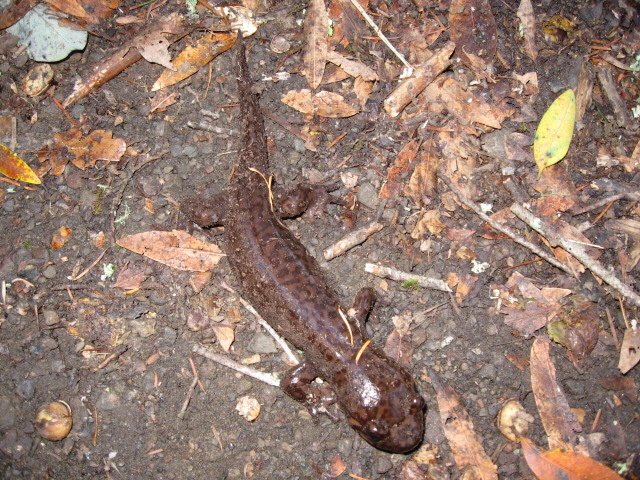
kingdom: Animalia
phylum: Chordata
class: Amphibia
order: Caudata
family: Ambystomatidae
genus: Dicamptodon
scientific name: Dicamptodon ensatus
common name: California giant salamander
